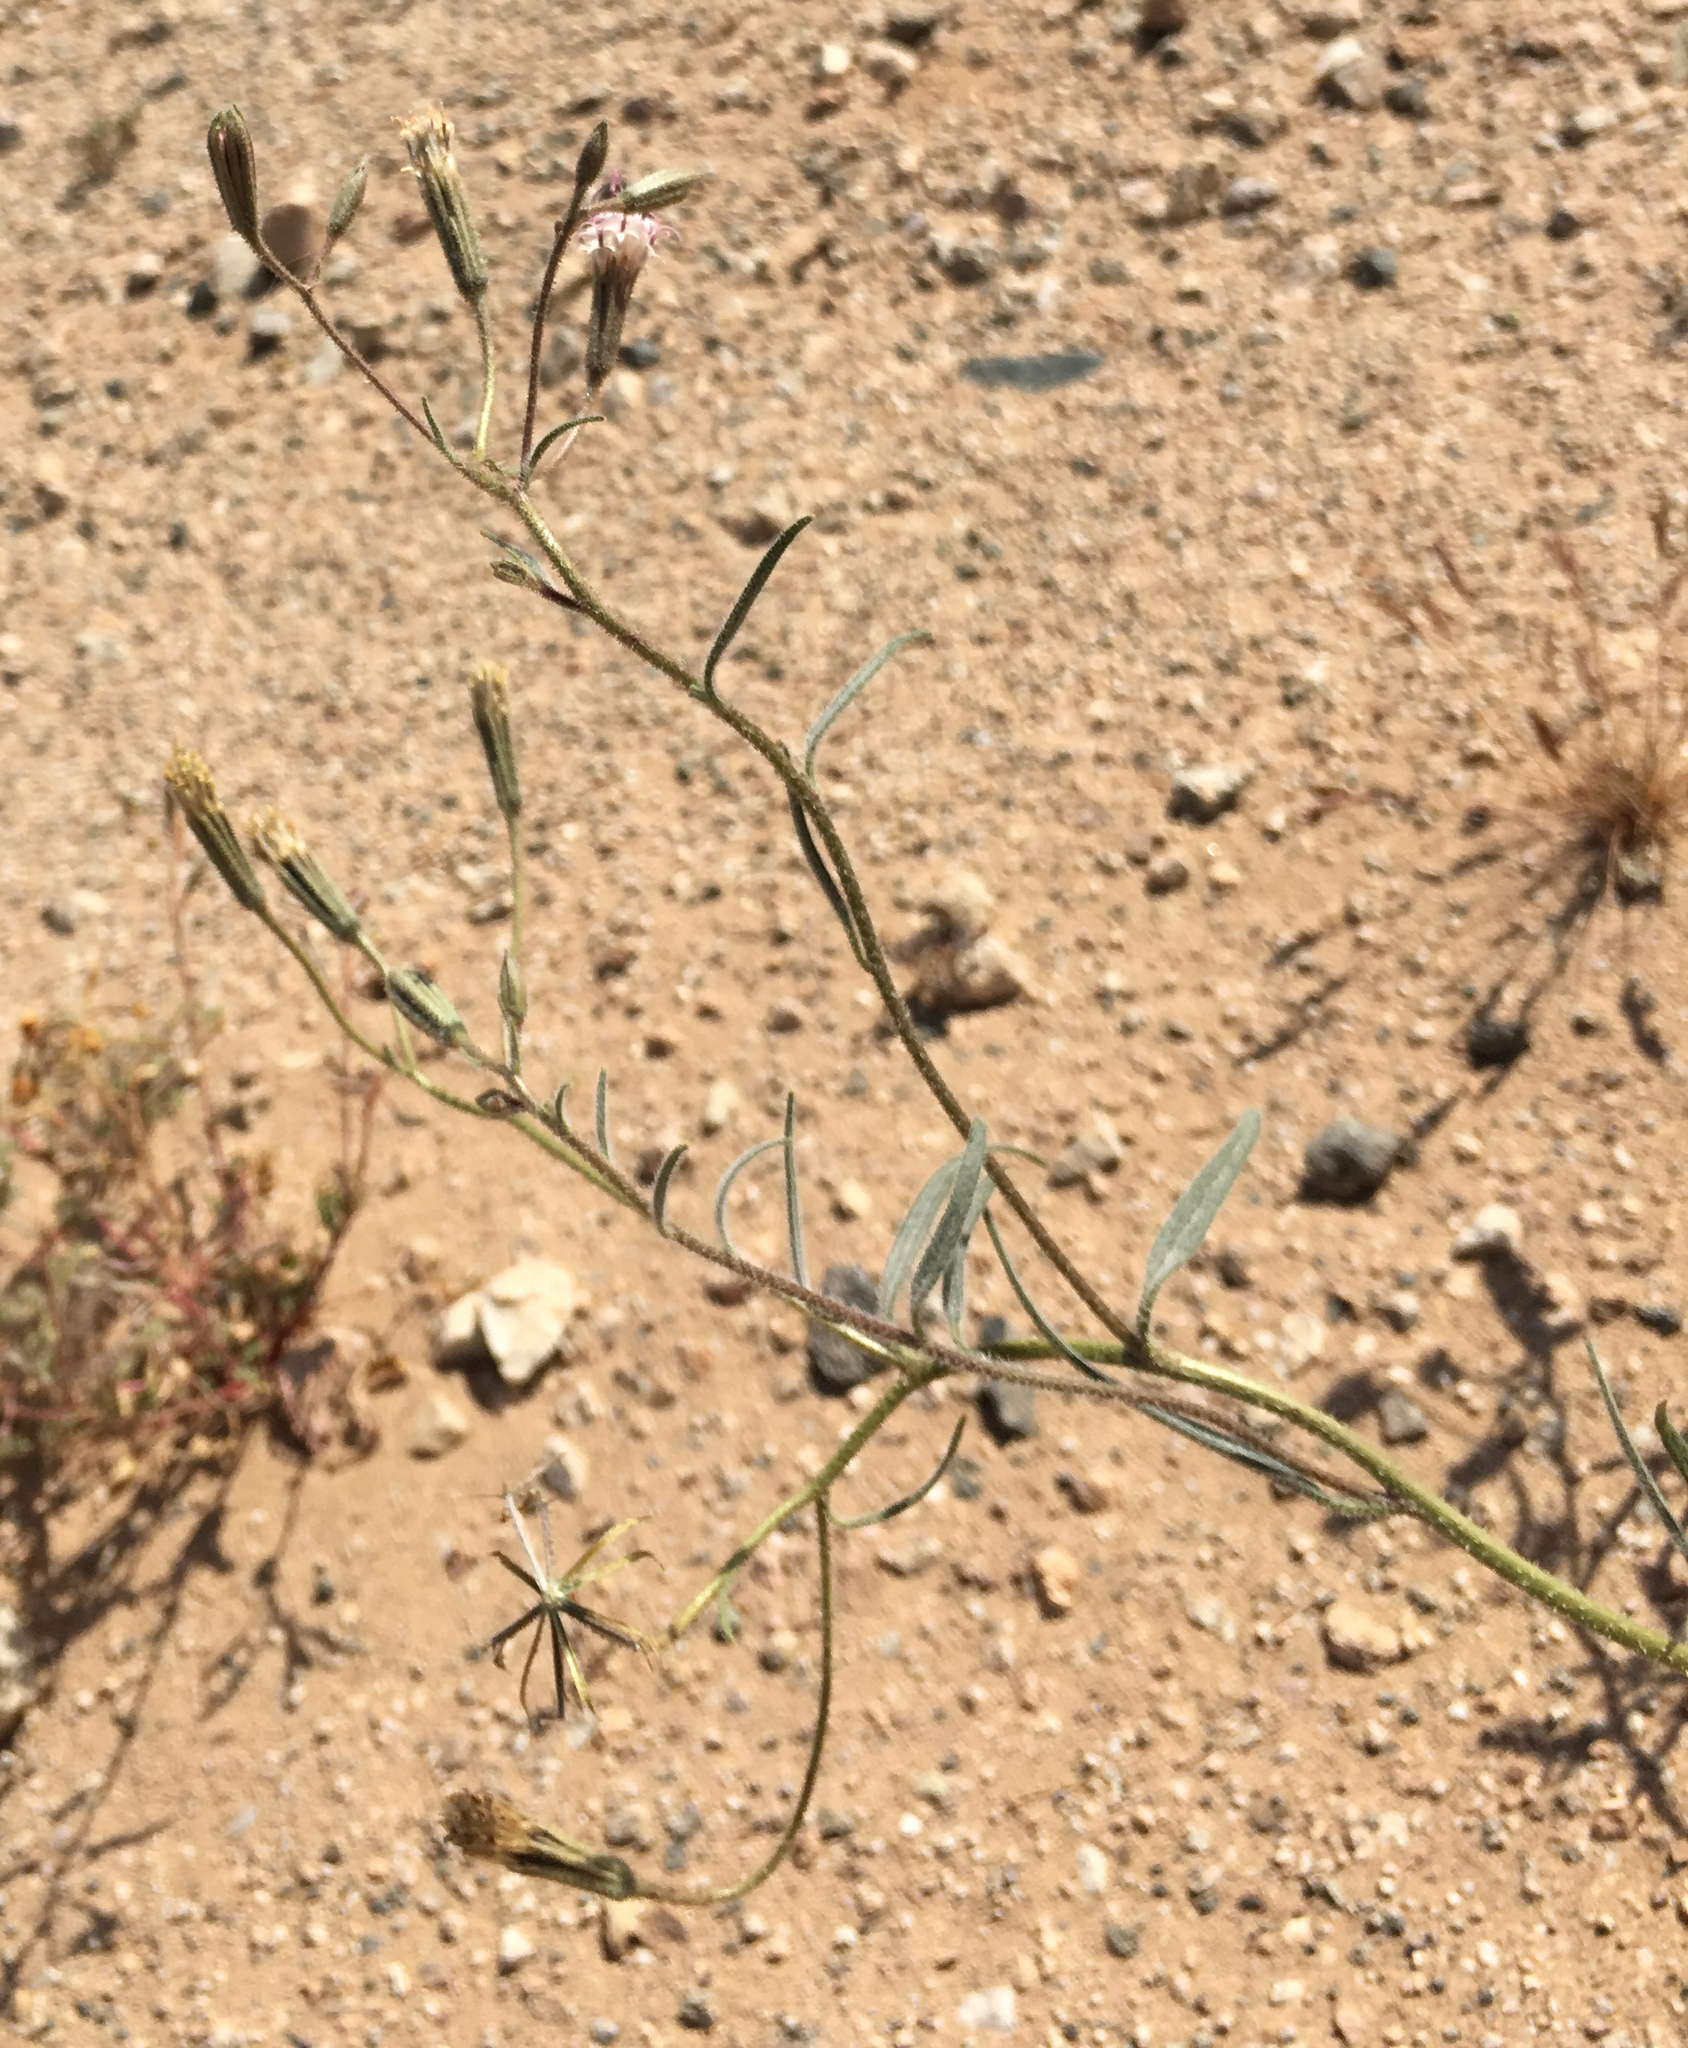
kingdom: Plantae
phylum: Tracheophyta
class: Magnoliopsida
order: Asterales
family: Asteraceae
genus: Palafoxia
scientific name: Palafoxia arida
